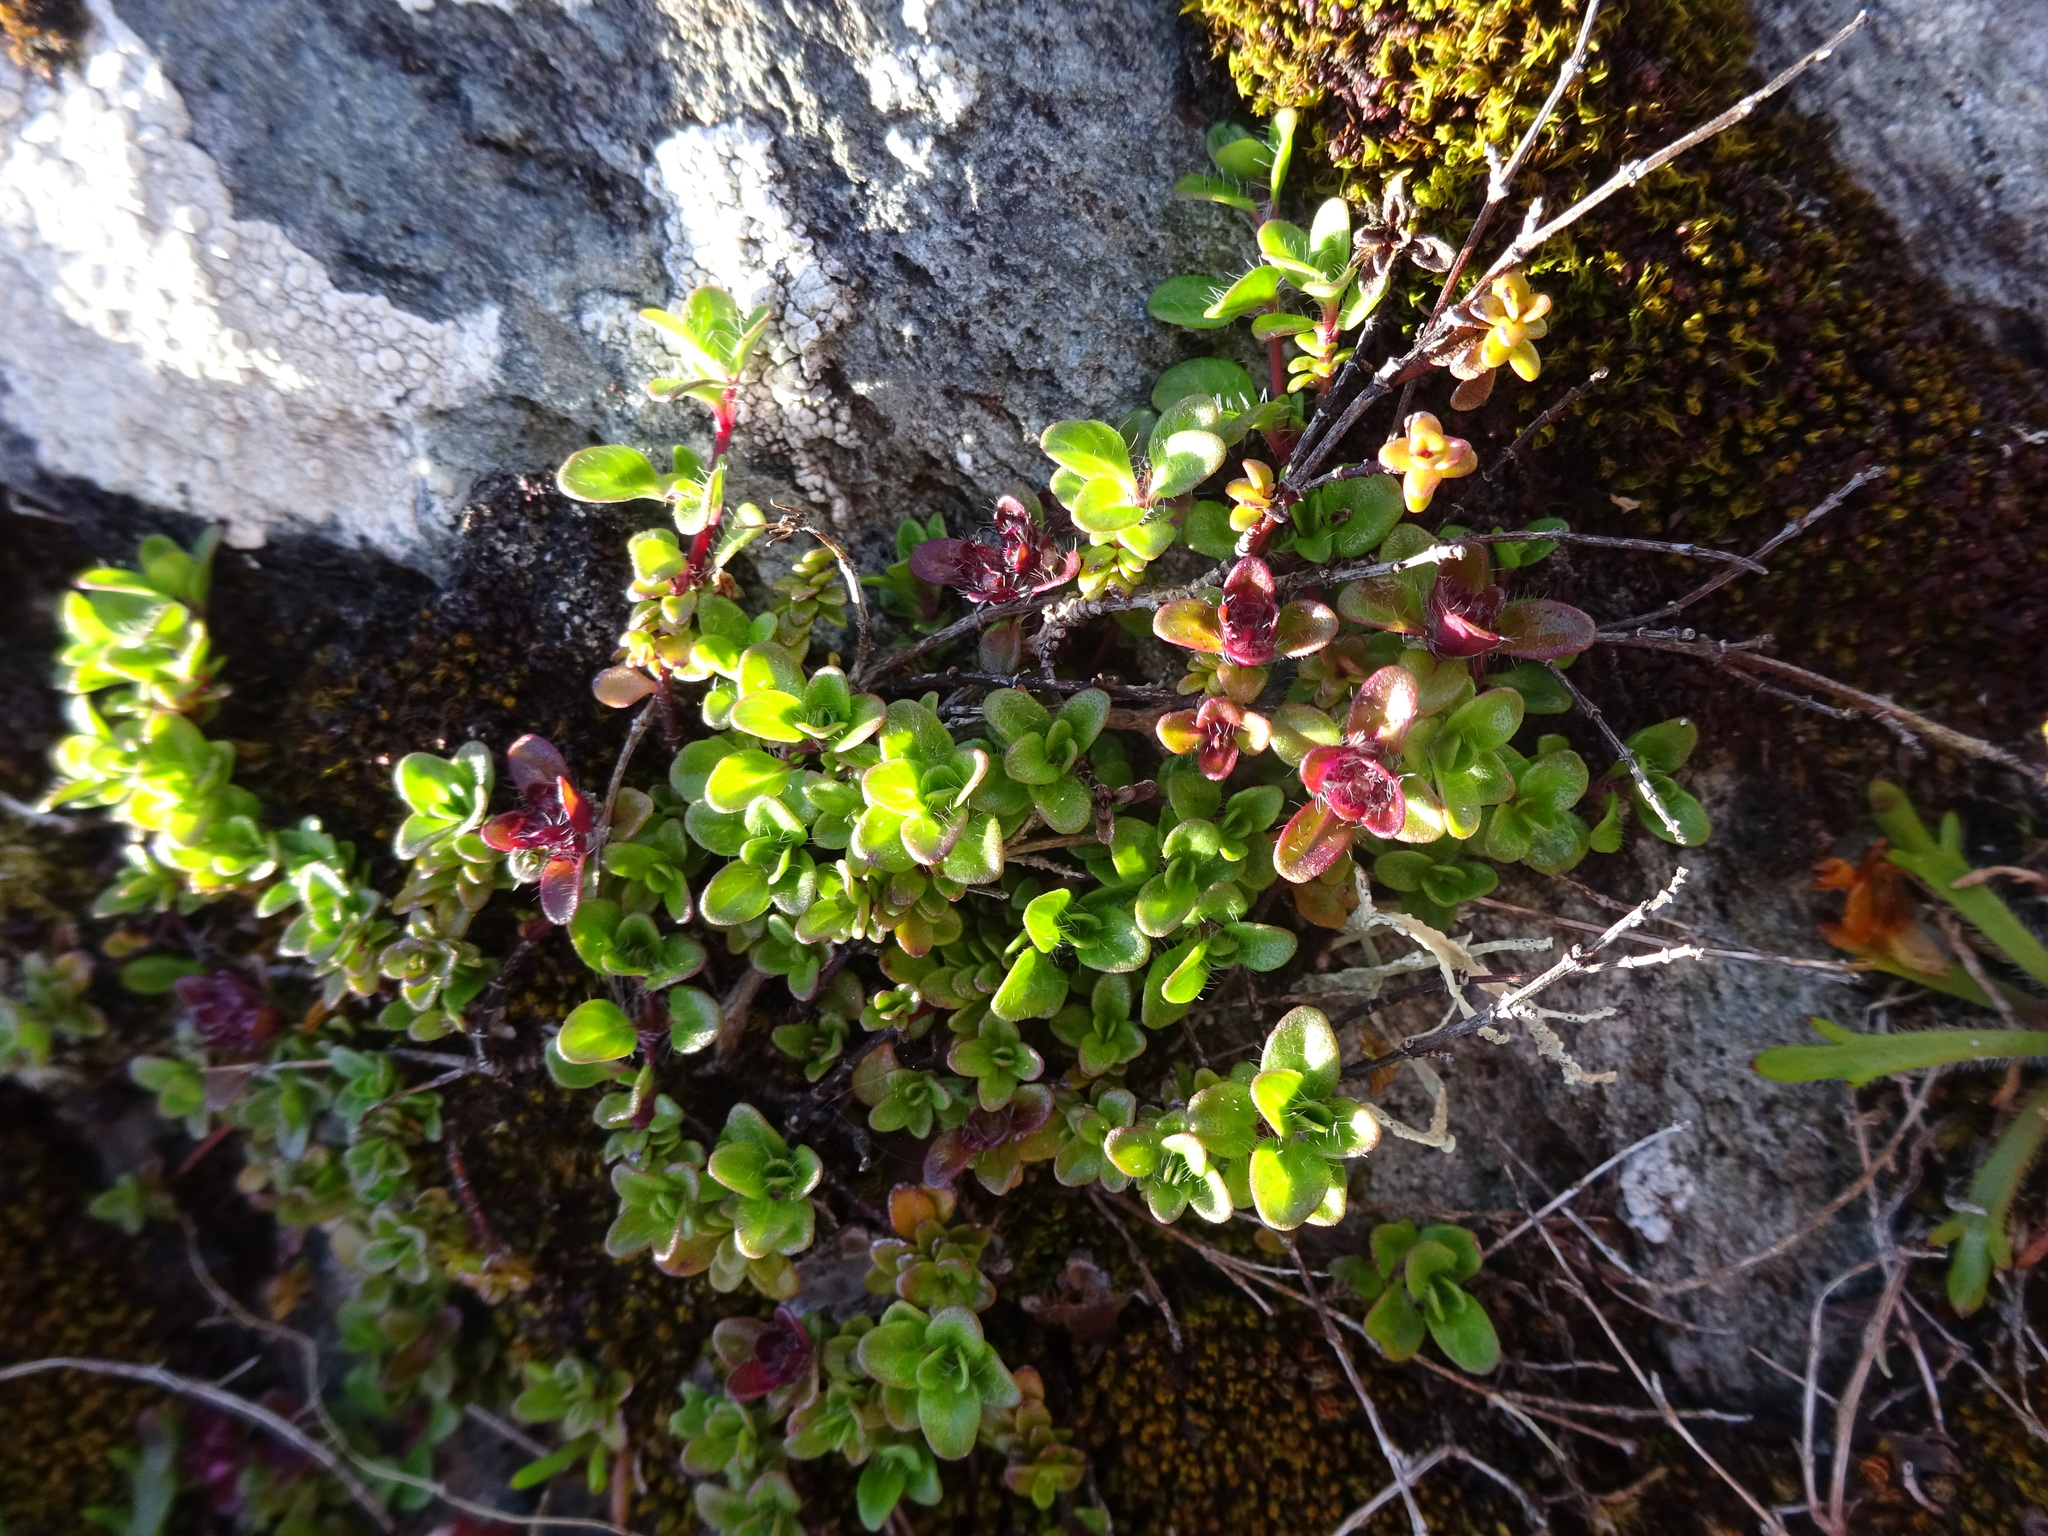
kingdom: Plantae
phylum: Tracheophyta
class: Magnoliopsida
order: Lamiales
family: Lamiaceae
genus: Thymus
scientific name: Thymus praecox
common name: Wild thyme
